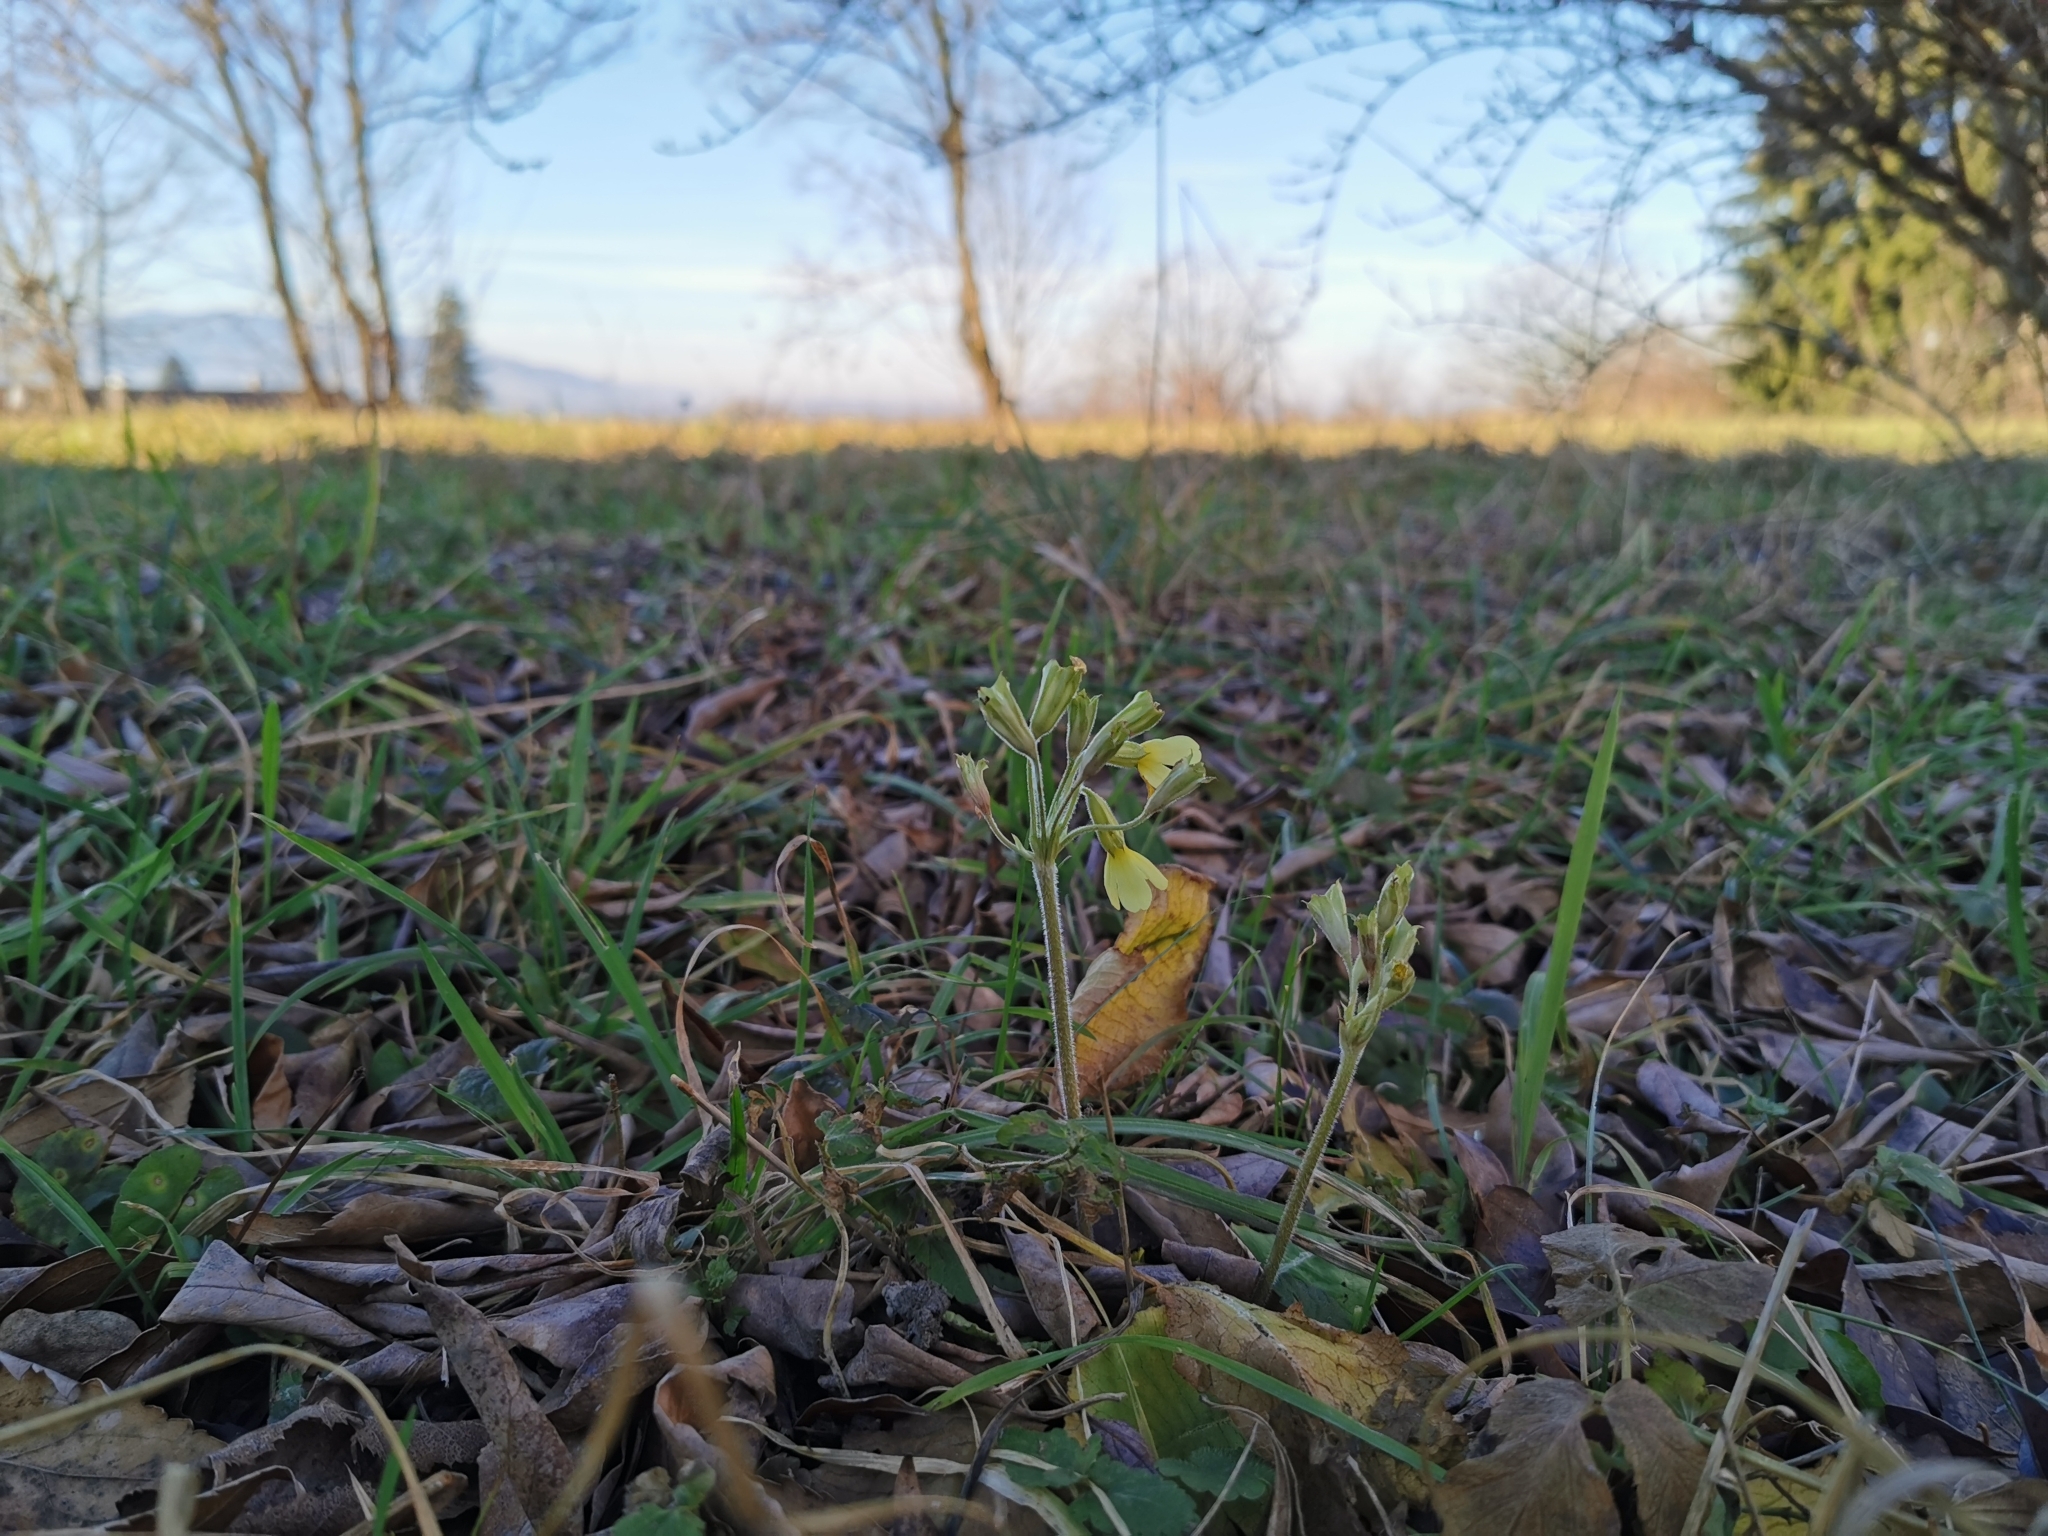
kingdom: Plantae
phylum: Tracheophyta
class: Magnoliopsida
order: Ericales
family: Primulaceae
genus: Primula
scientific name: Primula elatior
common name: Oxlip
